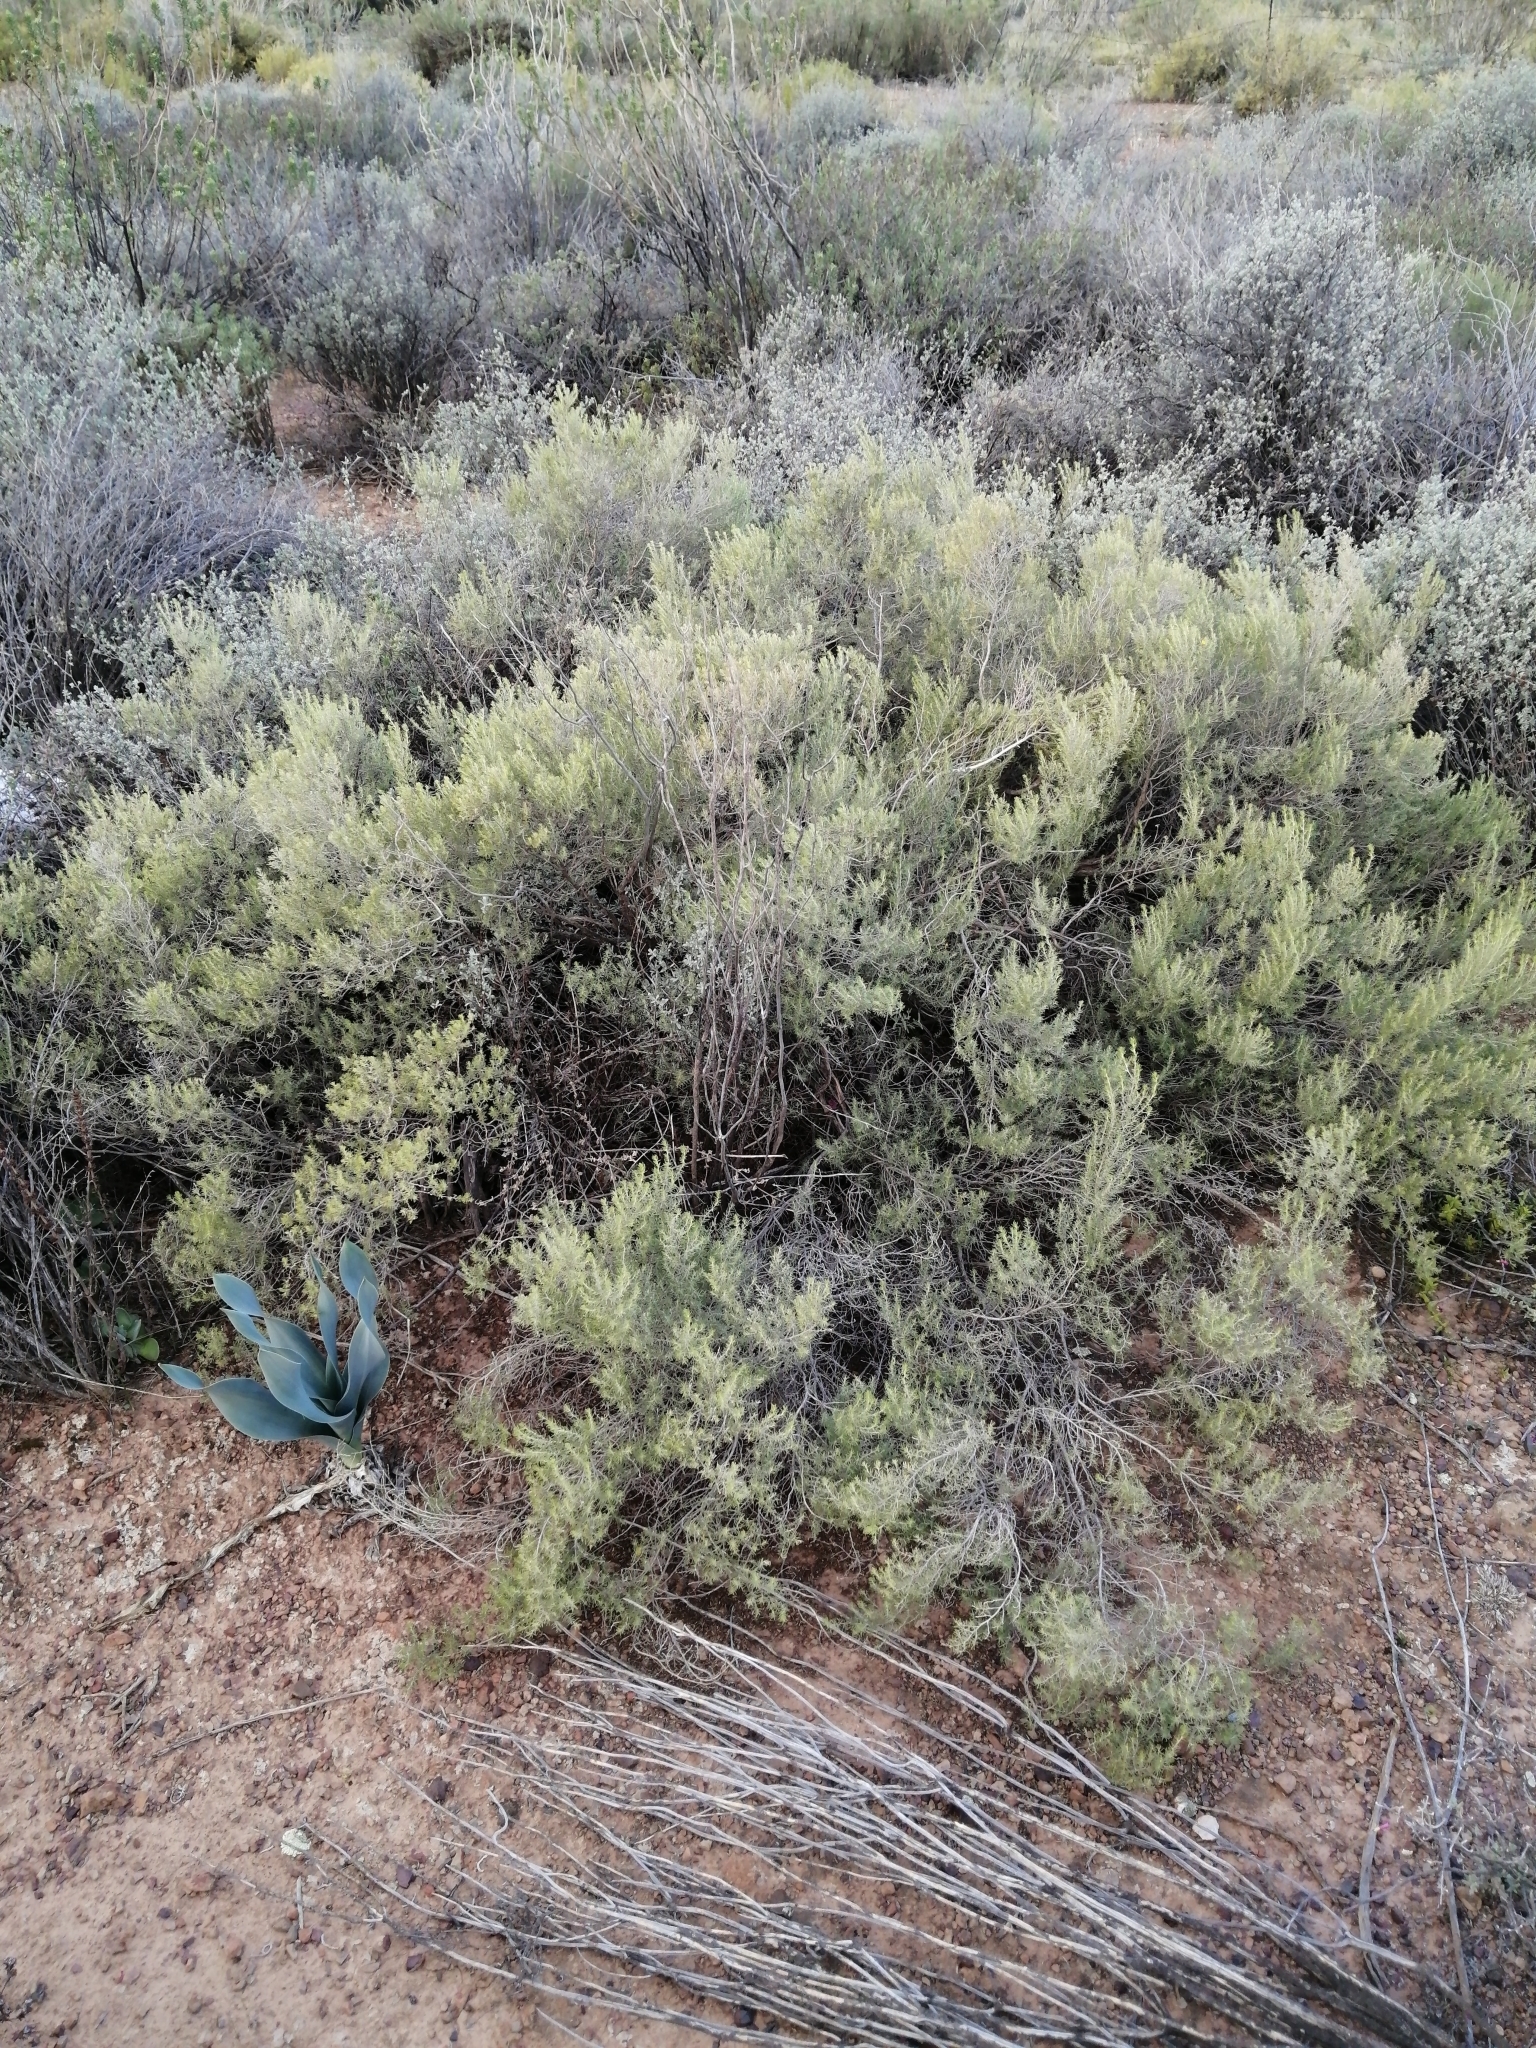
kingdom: Plantae
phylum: Tracheophyta
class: Magnoliopsida
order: Fabales
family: Fabaceae
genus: Aspalathus
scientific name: Aspalathus lactea
